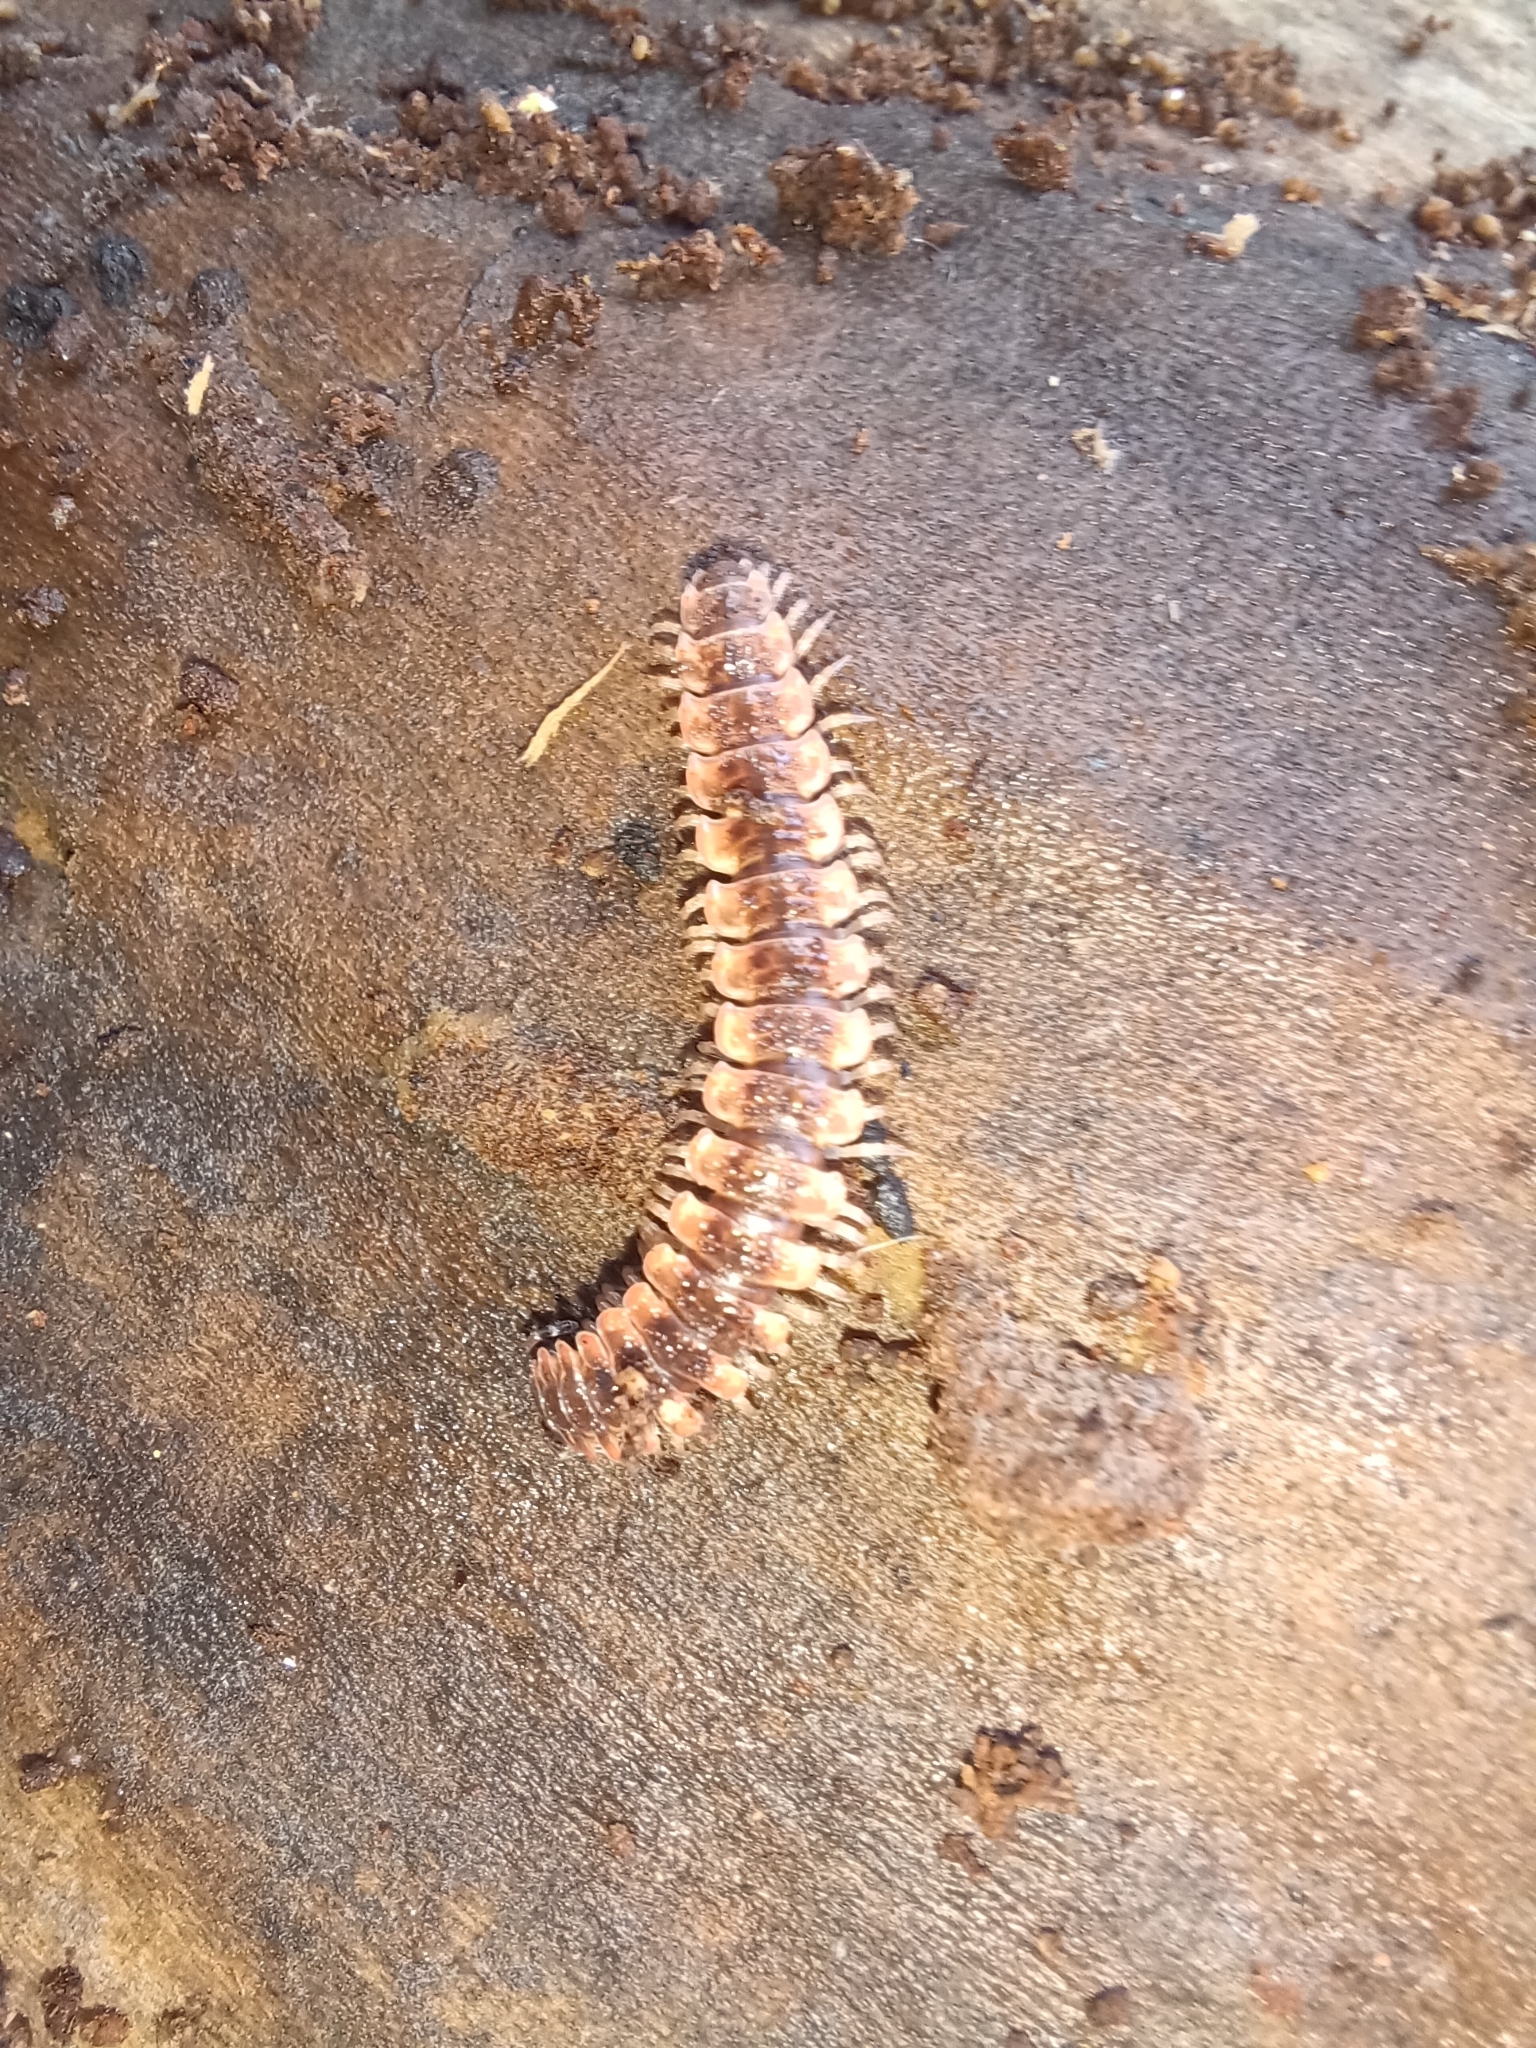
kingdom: Animalia
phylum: Arthropoda
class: Diplopoda
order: Polydesmida
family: Polydesmidae
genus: Pseudopolydesmus
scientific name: Pseudopolydesmus canadensis
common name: Canadian flat-back millipede
